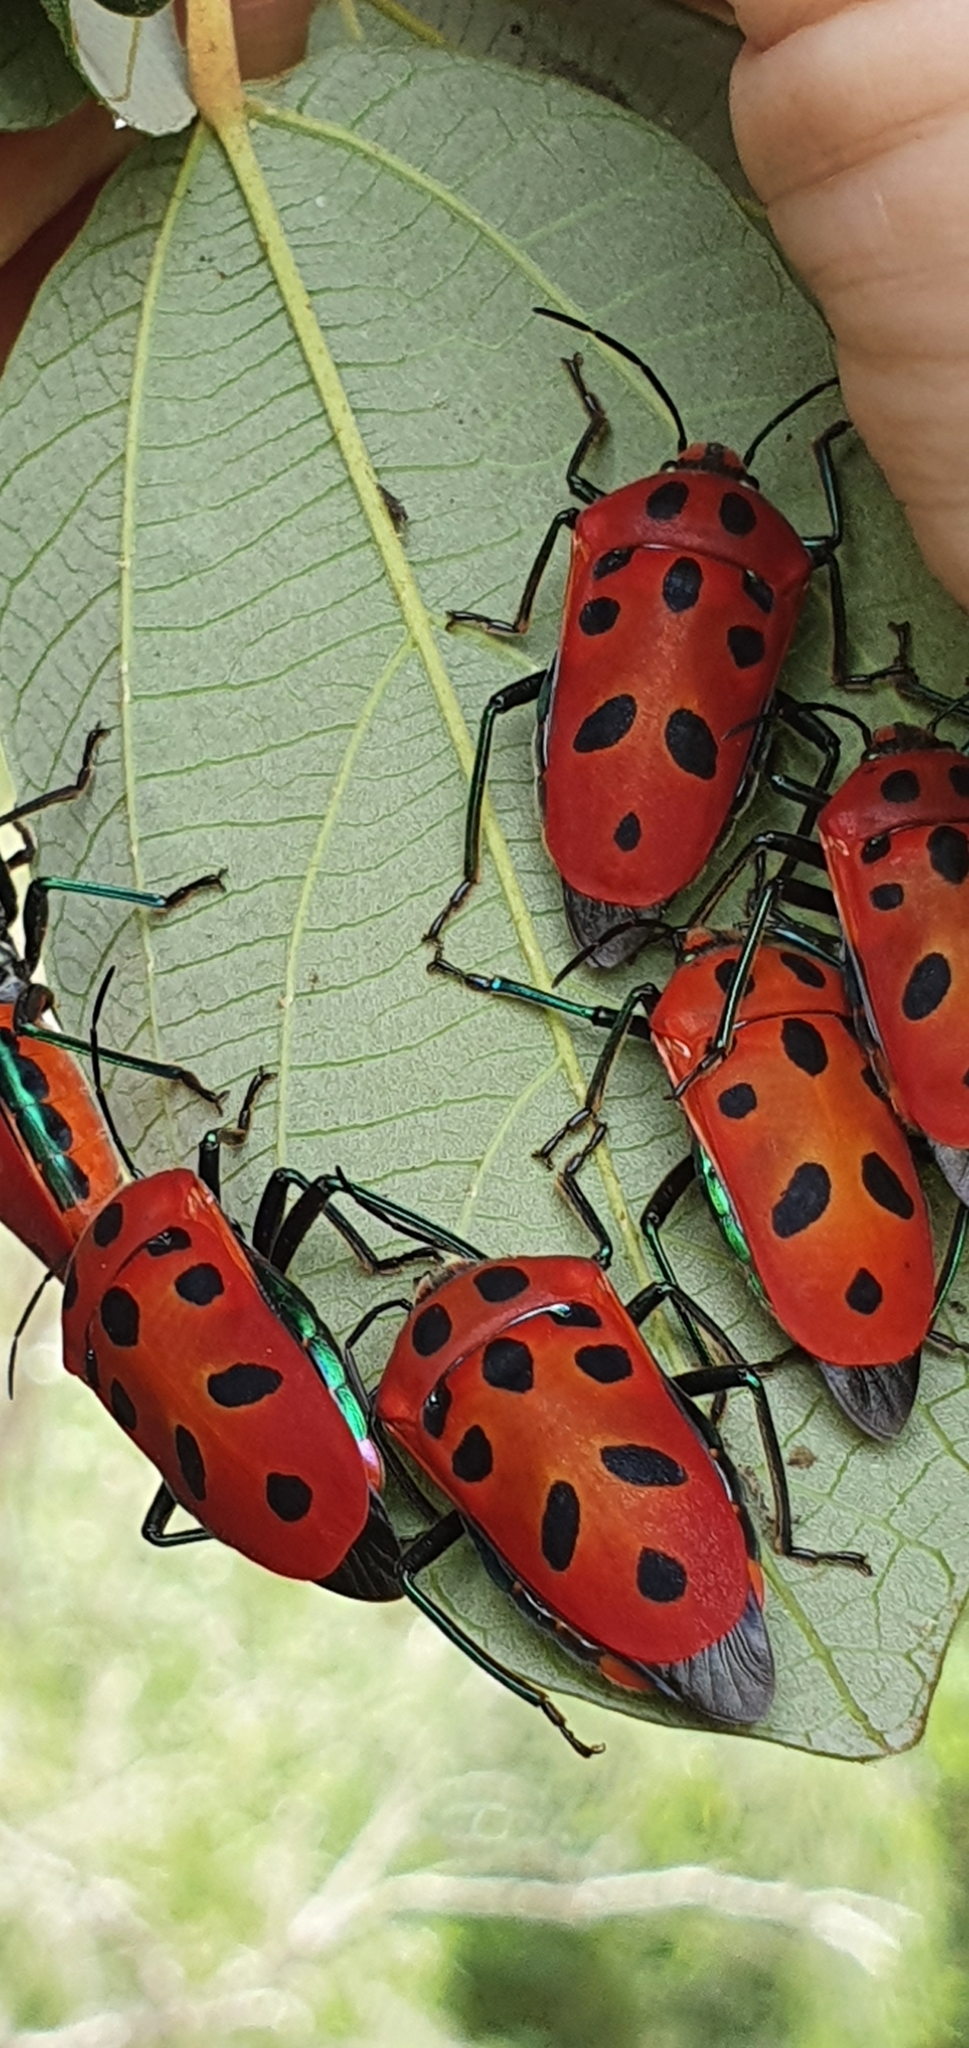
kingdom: Animalia
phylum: Arthropoda
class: Insecta
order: Hemiptera
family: Scutelleridae
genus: Cantao
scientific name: Cantao
